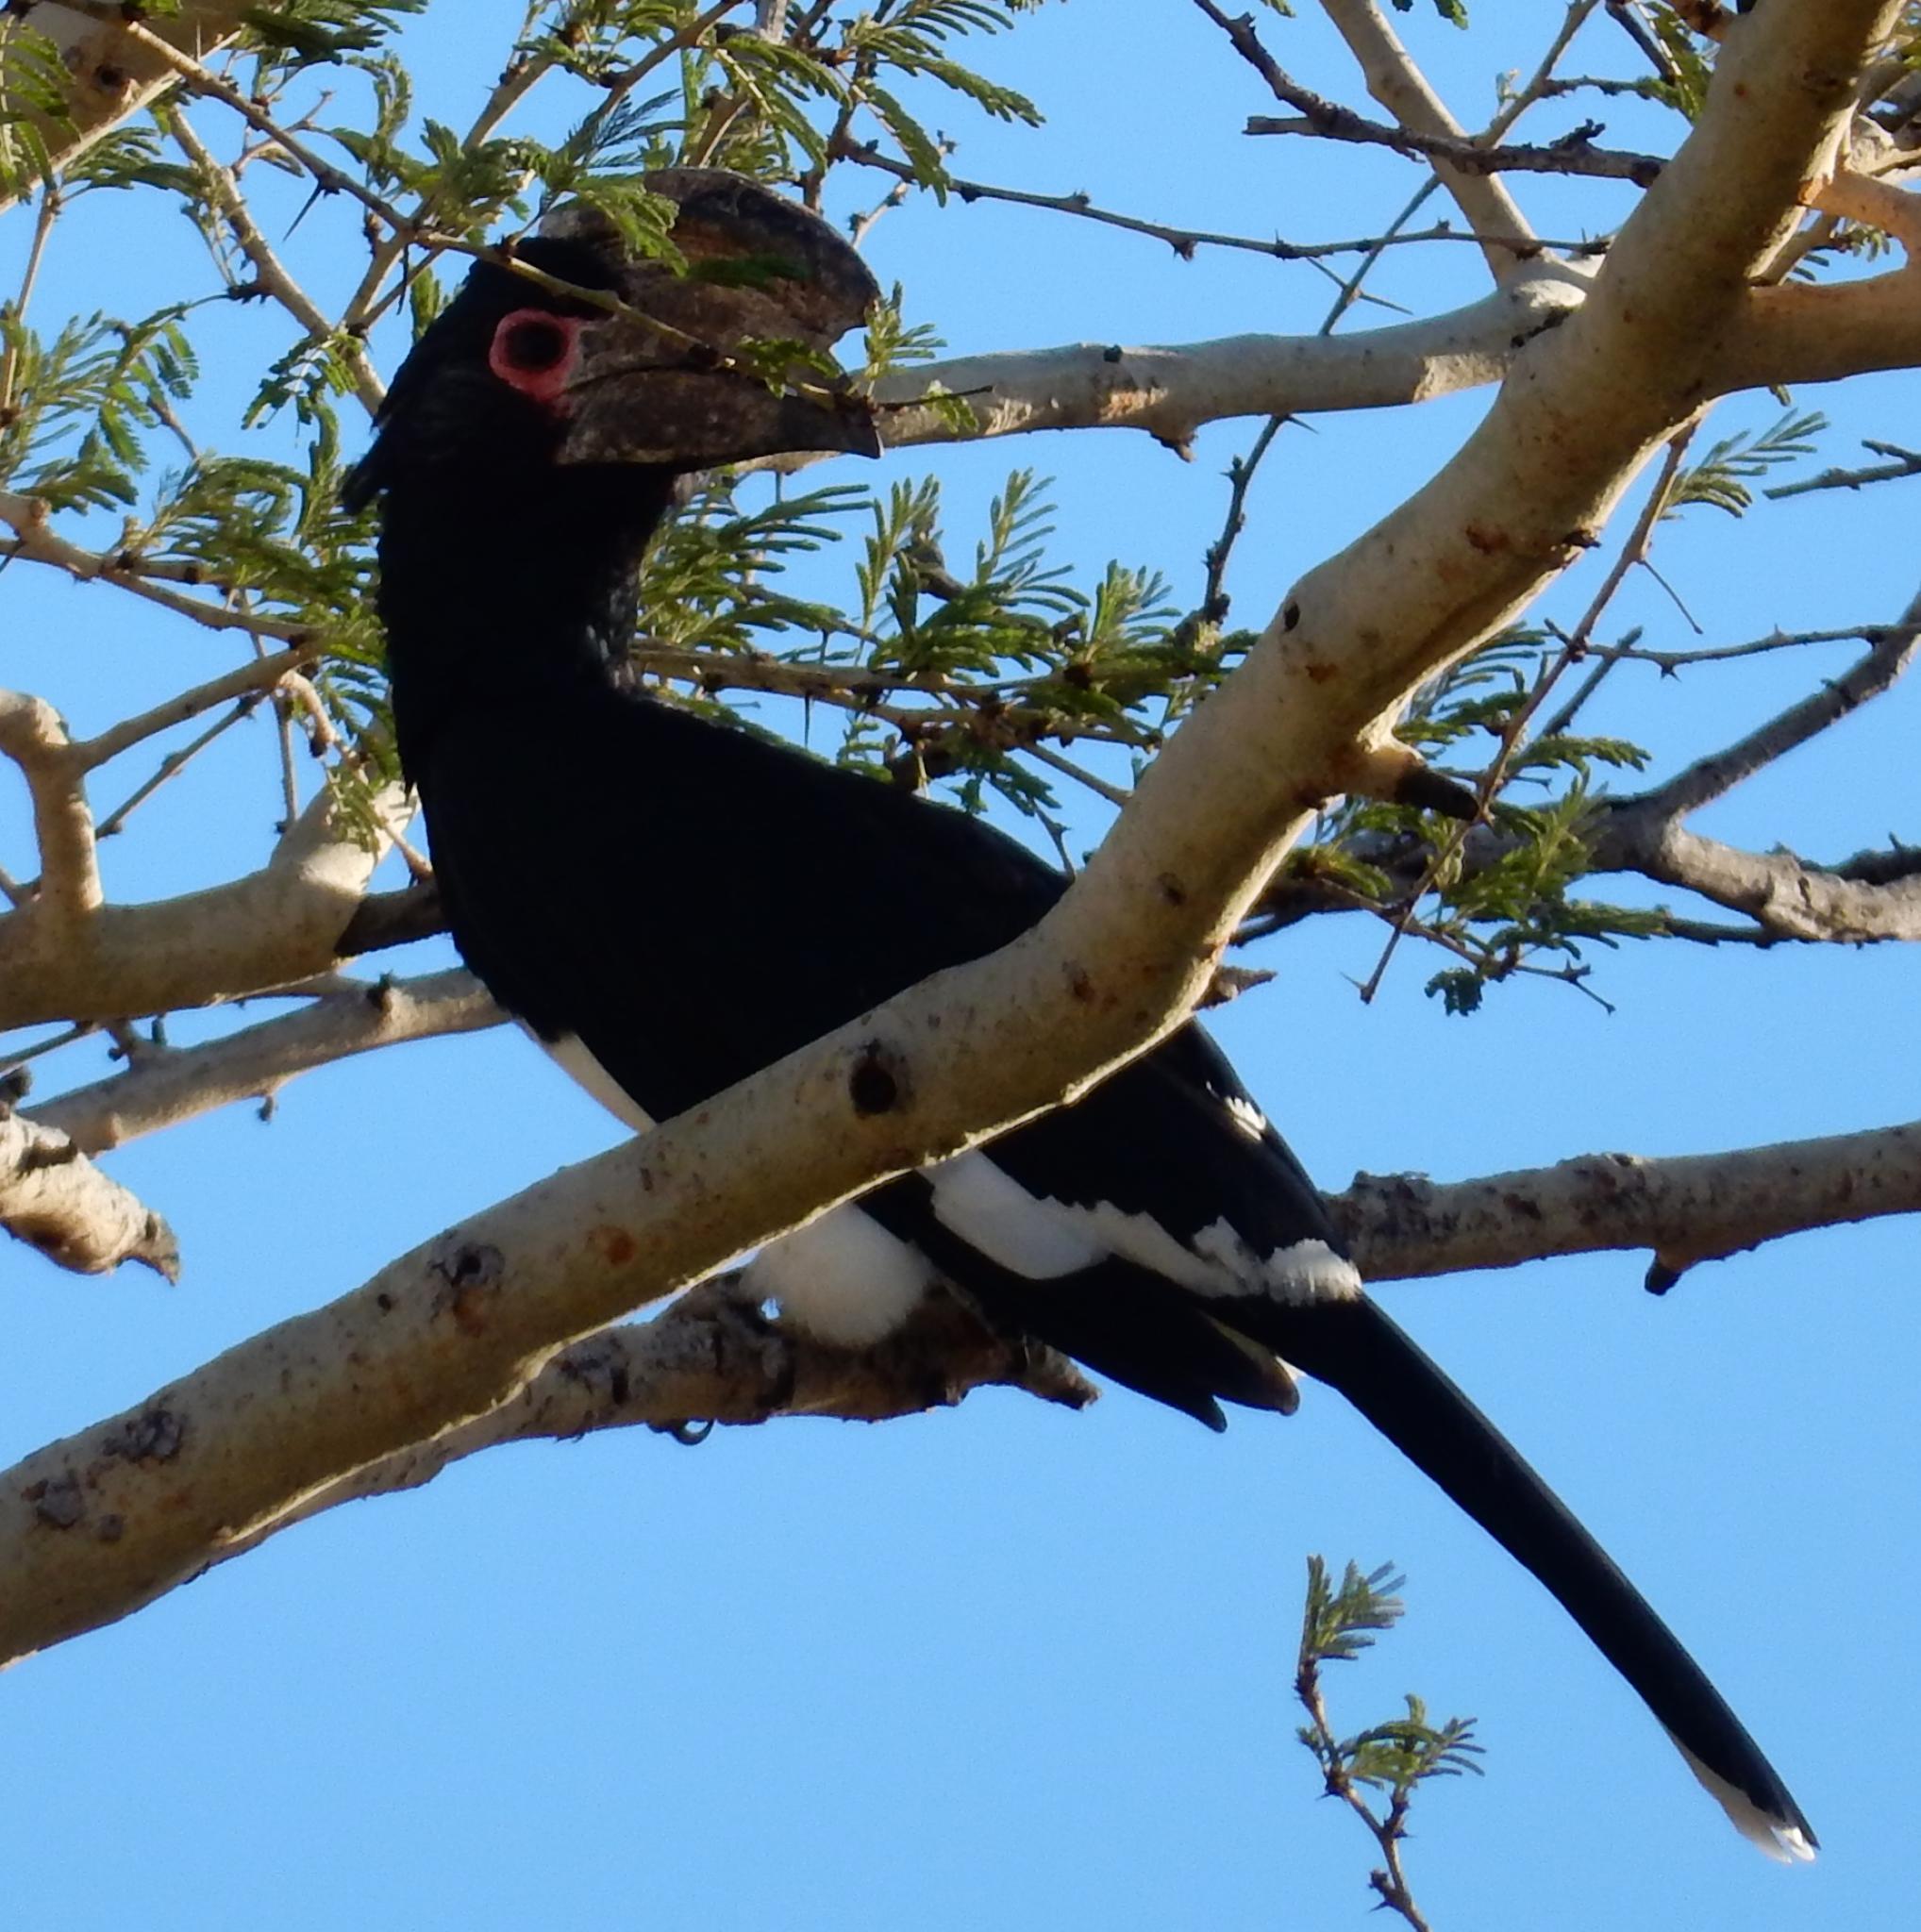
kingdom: Animalia
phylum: Chordata
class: Aves
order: Bucerotiformes
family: Bucerotidae
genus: Bycanistes
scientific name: Bycanistes bucinator
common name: Trumpeter hornbill
